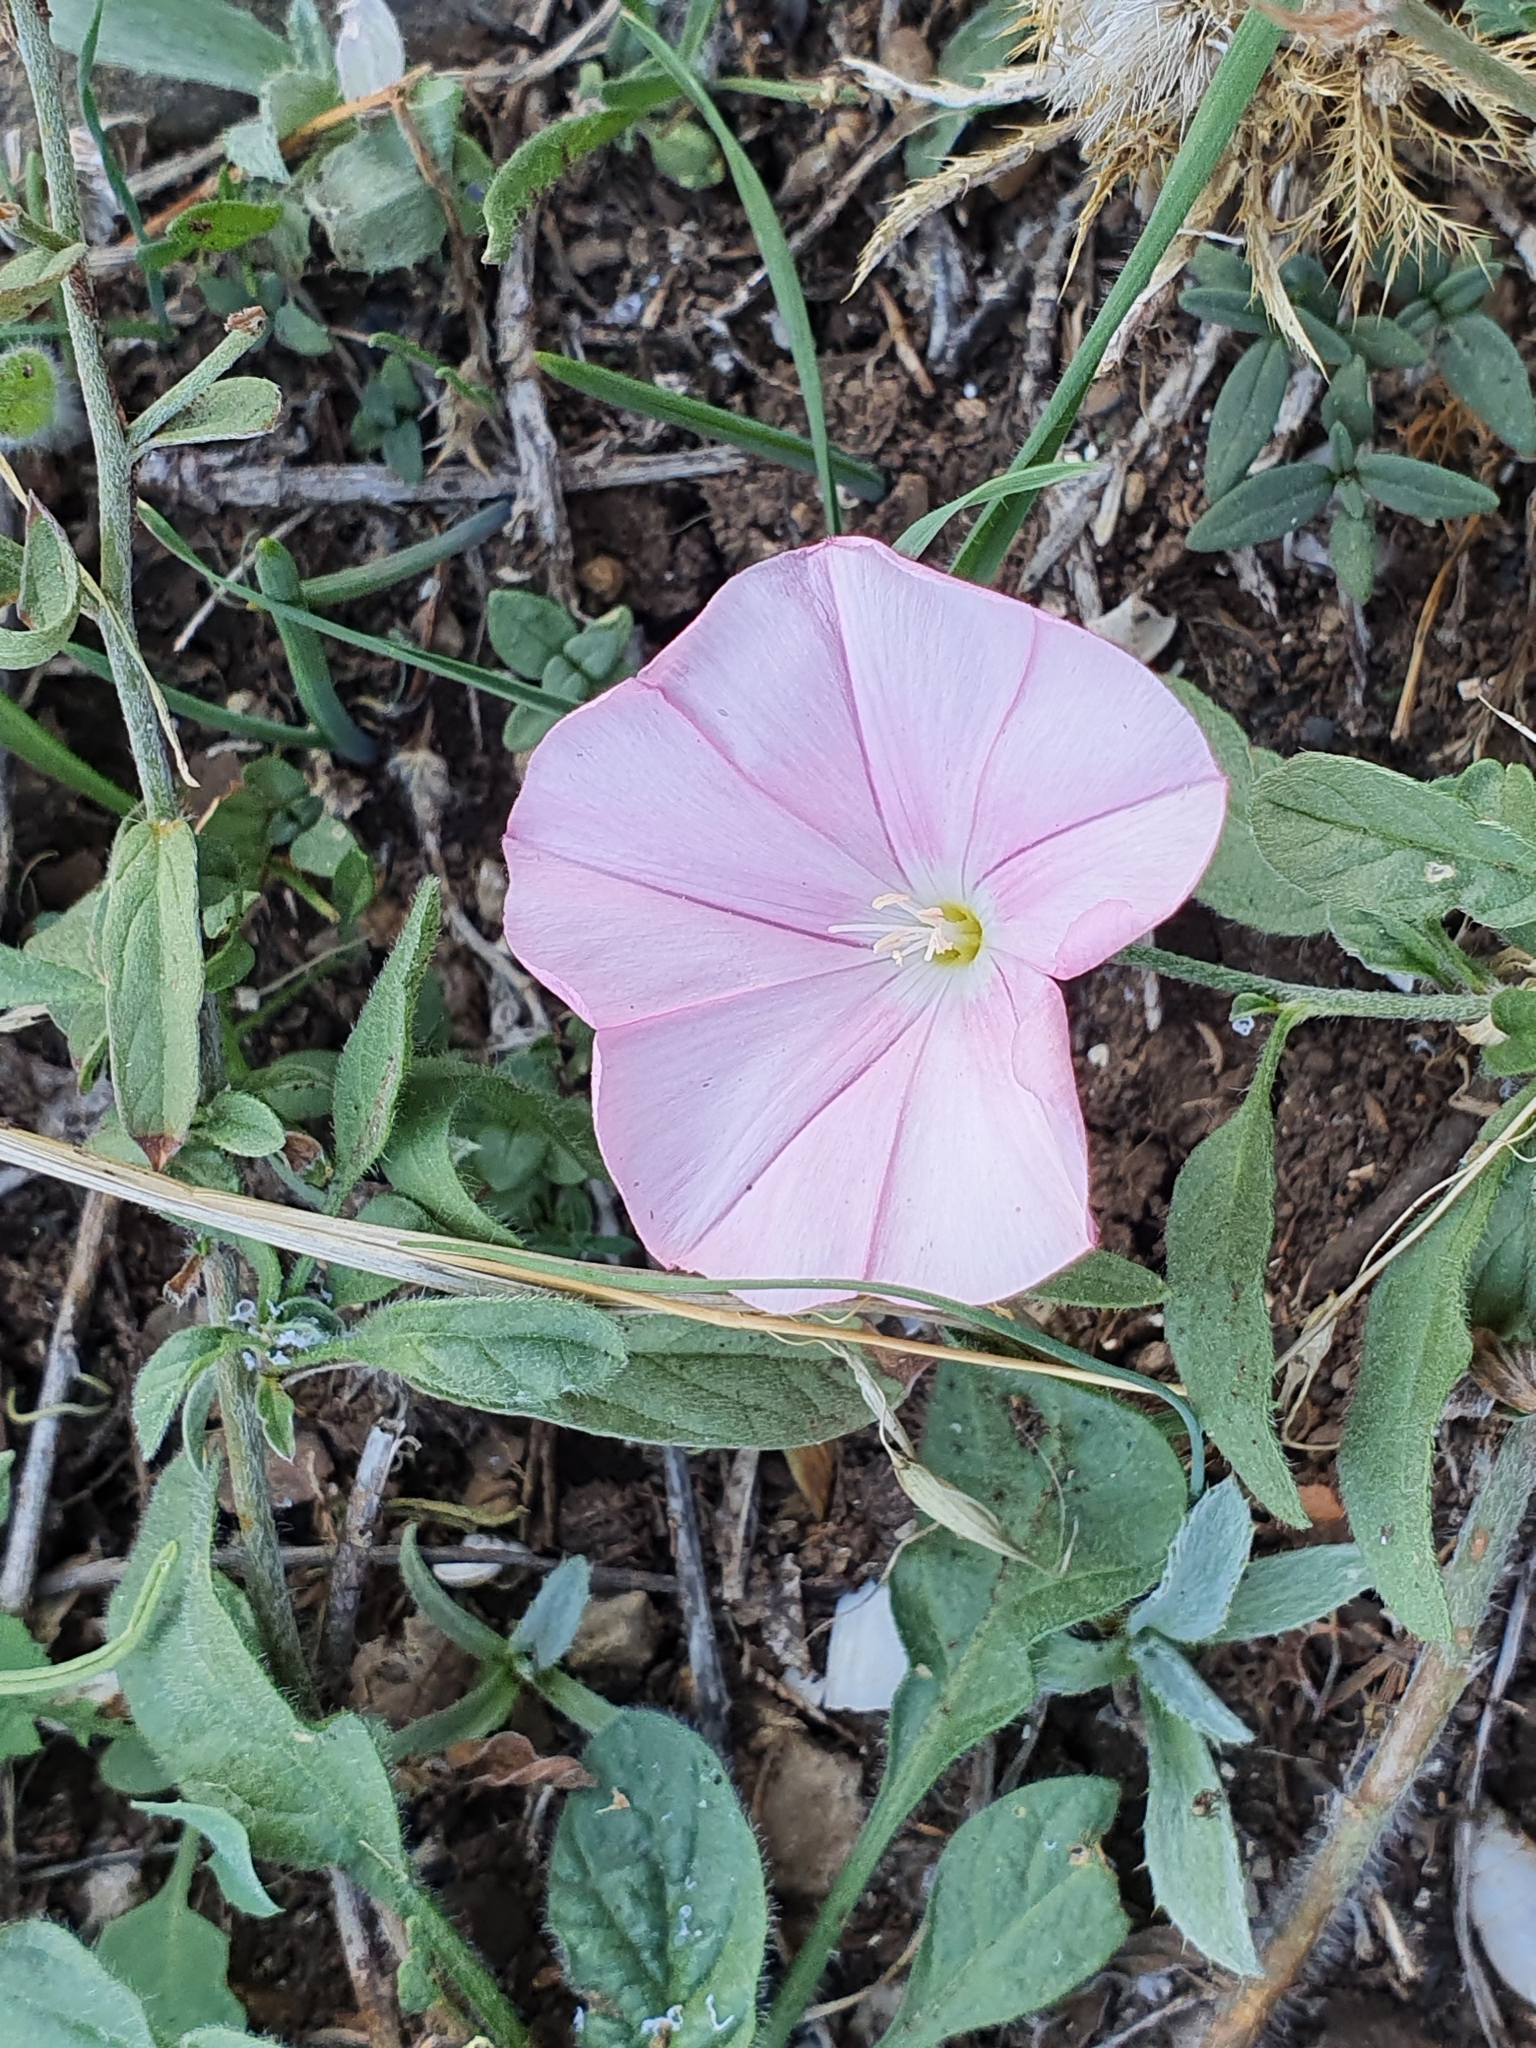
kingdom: Plantae
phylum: Tracheophyta
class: Magnoliopsida
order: Solanales
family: Convolvulaceae
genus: Convolvulus
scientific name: Convolvulus cantabrica
